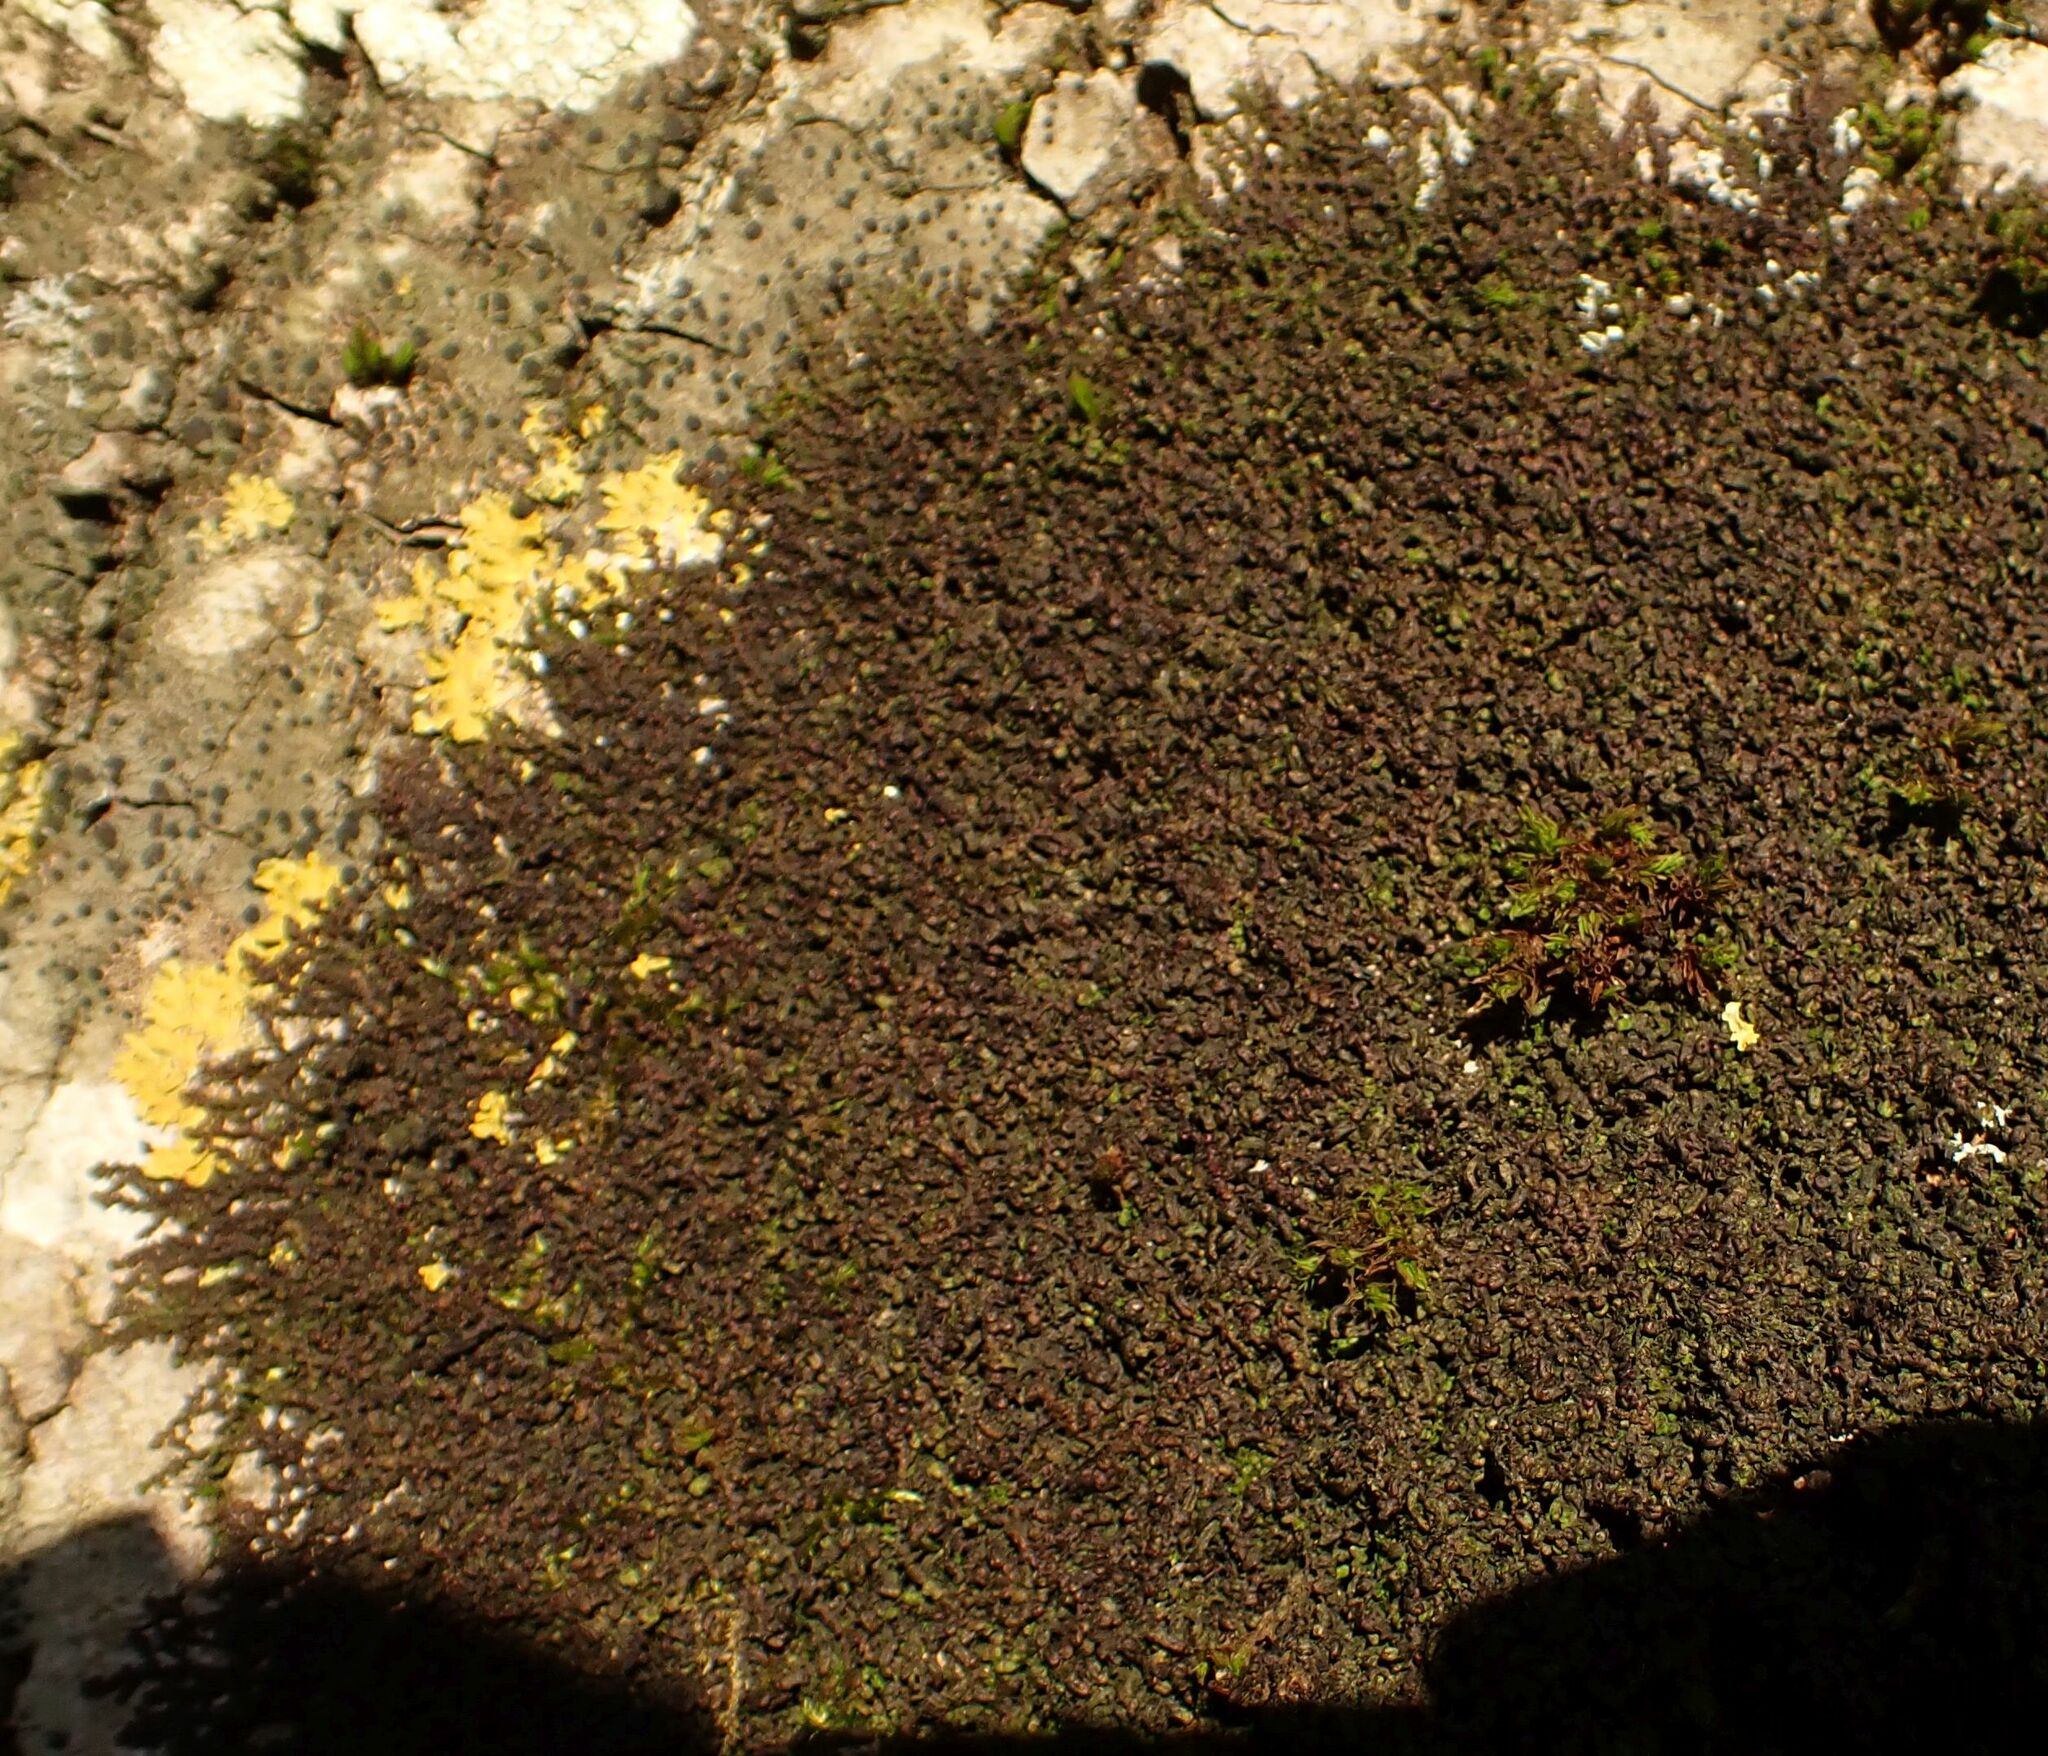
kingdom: Plantae
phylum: Marchantiophyta
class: Jungermanniopsida
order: Porellales
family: Frullaniaceae
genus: Frullania
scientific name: Frullania dilatata
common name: Dilated scalewort
